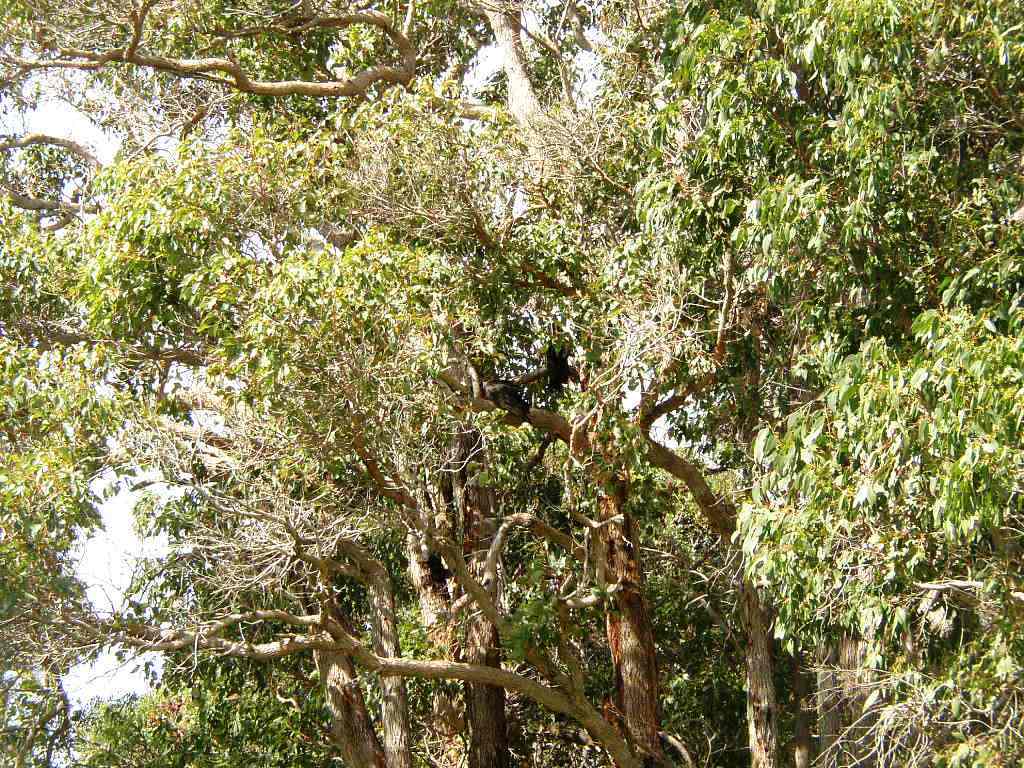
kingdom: Plantae
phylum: Tracheophyta
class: Magnoliopsida
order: Myrtales
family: Myrtaceae
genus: Corymbia
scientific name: Corymbia calophylla
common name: Marri
